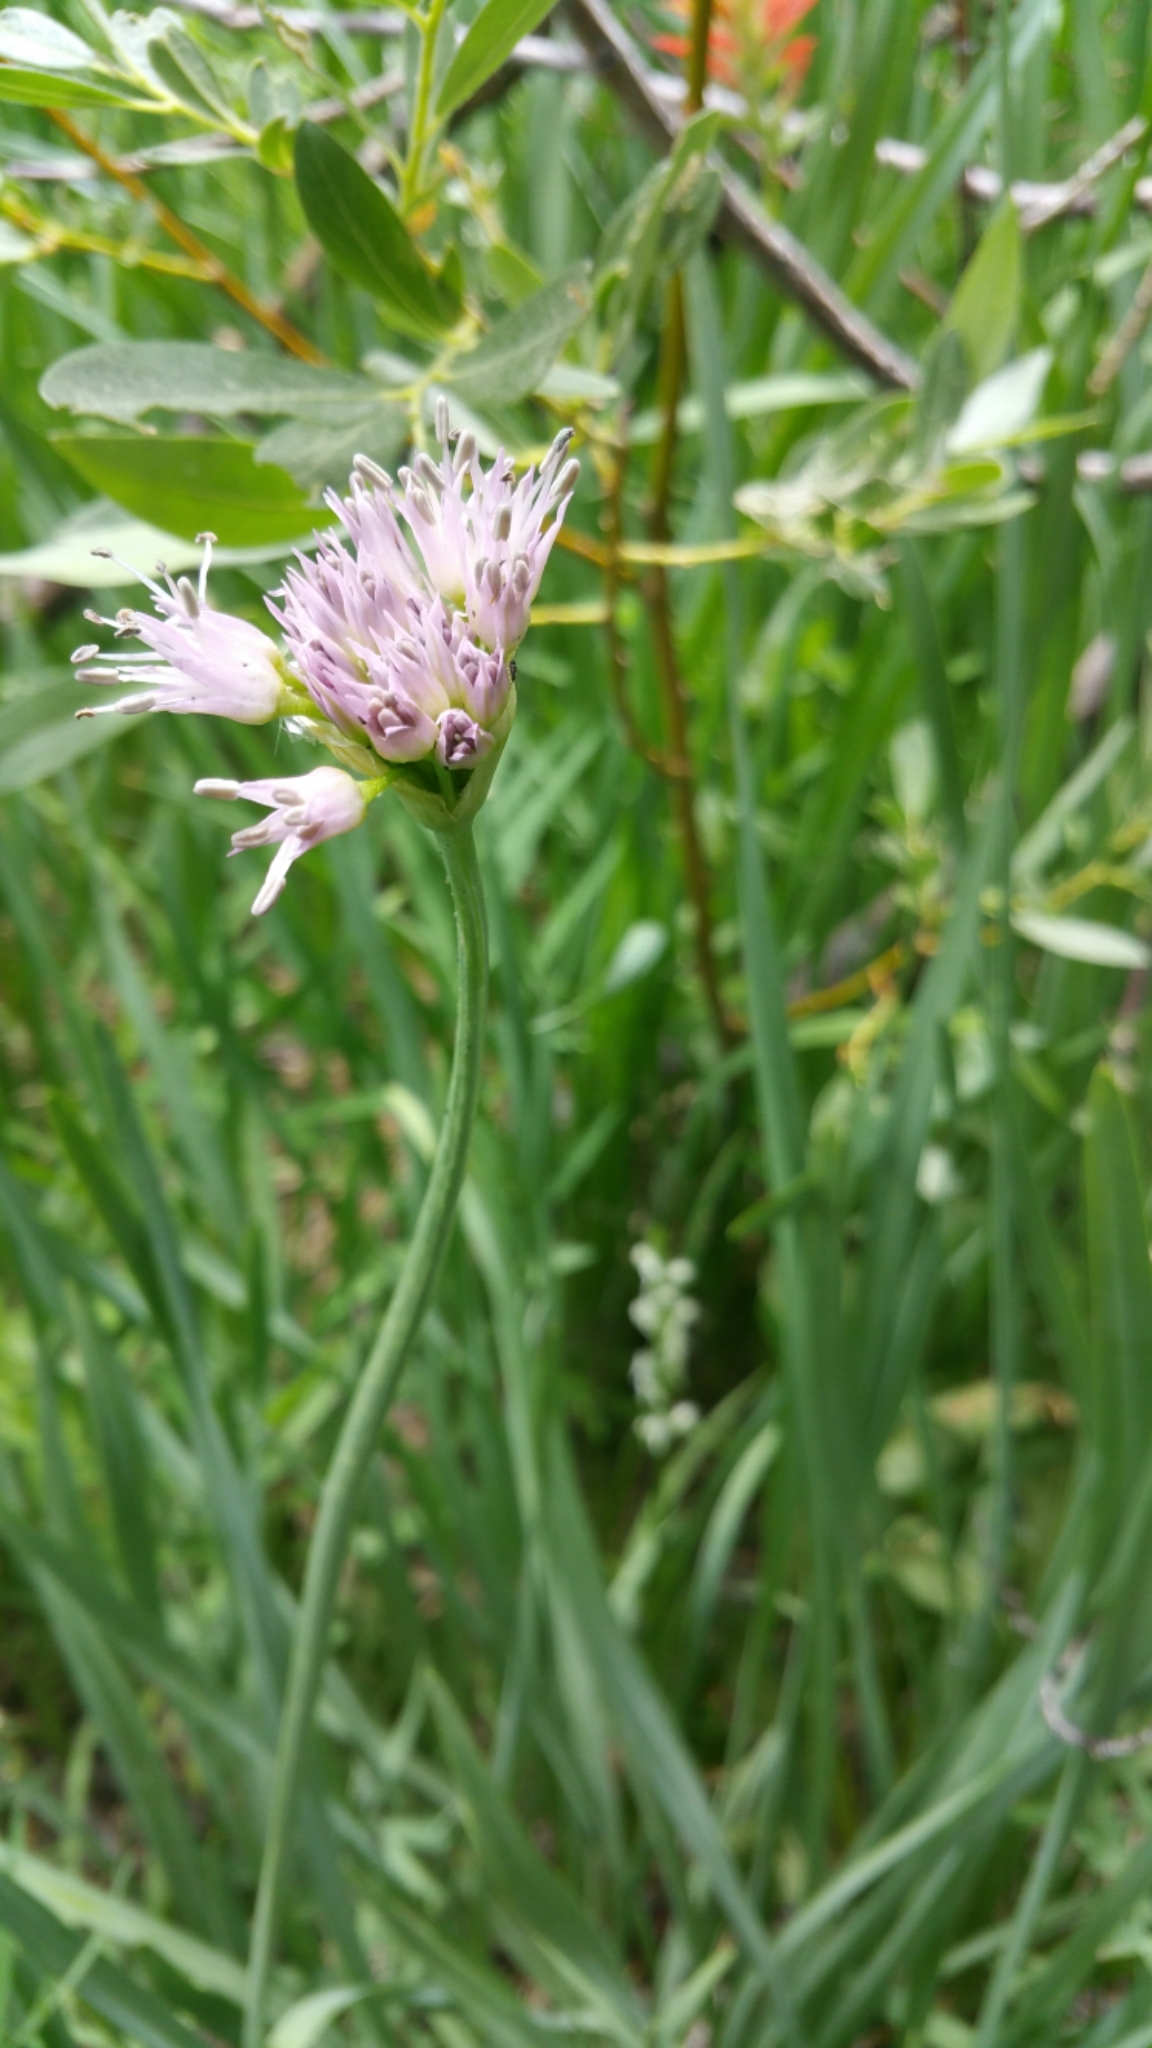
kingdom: Plantae
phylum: Tracheophyta
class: Liliopsida
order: Asparagales
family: Amaryllidaceae
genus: Allium
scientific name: Allium validum
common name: Pacific mountain onion
